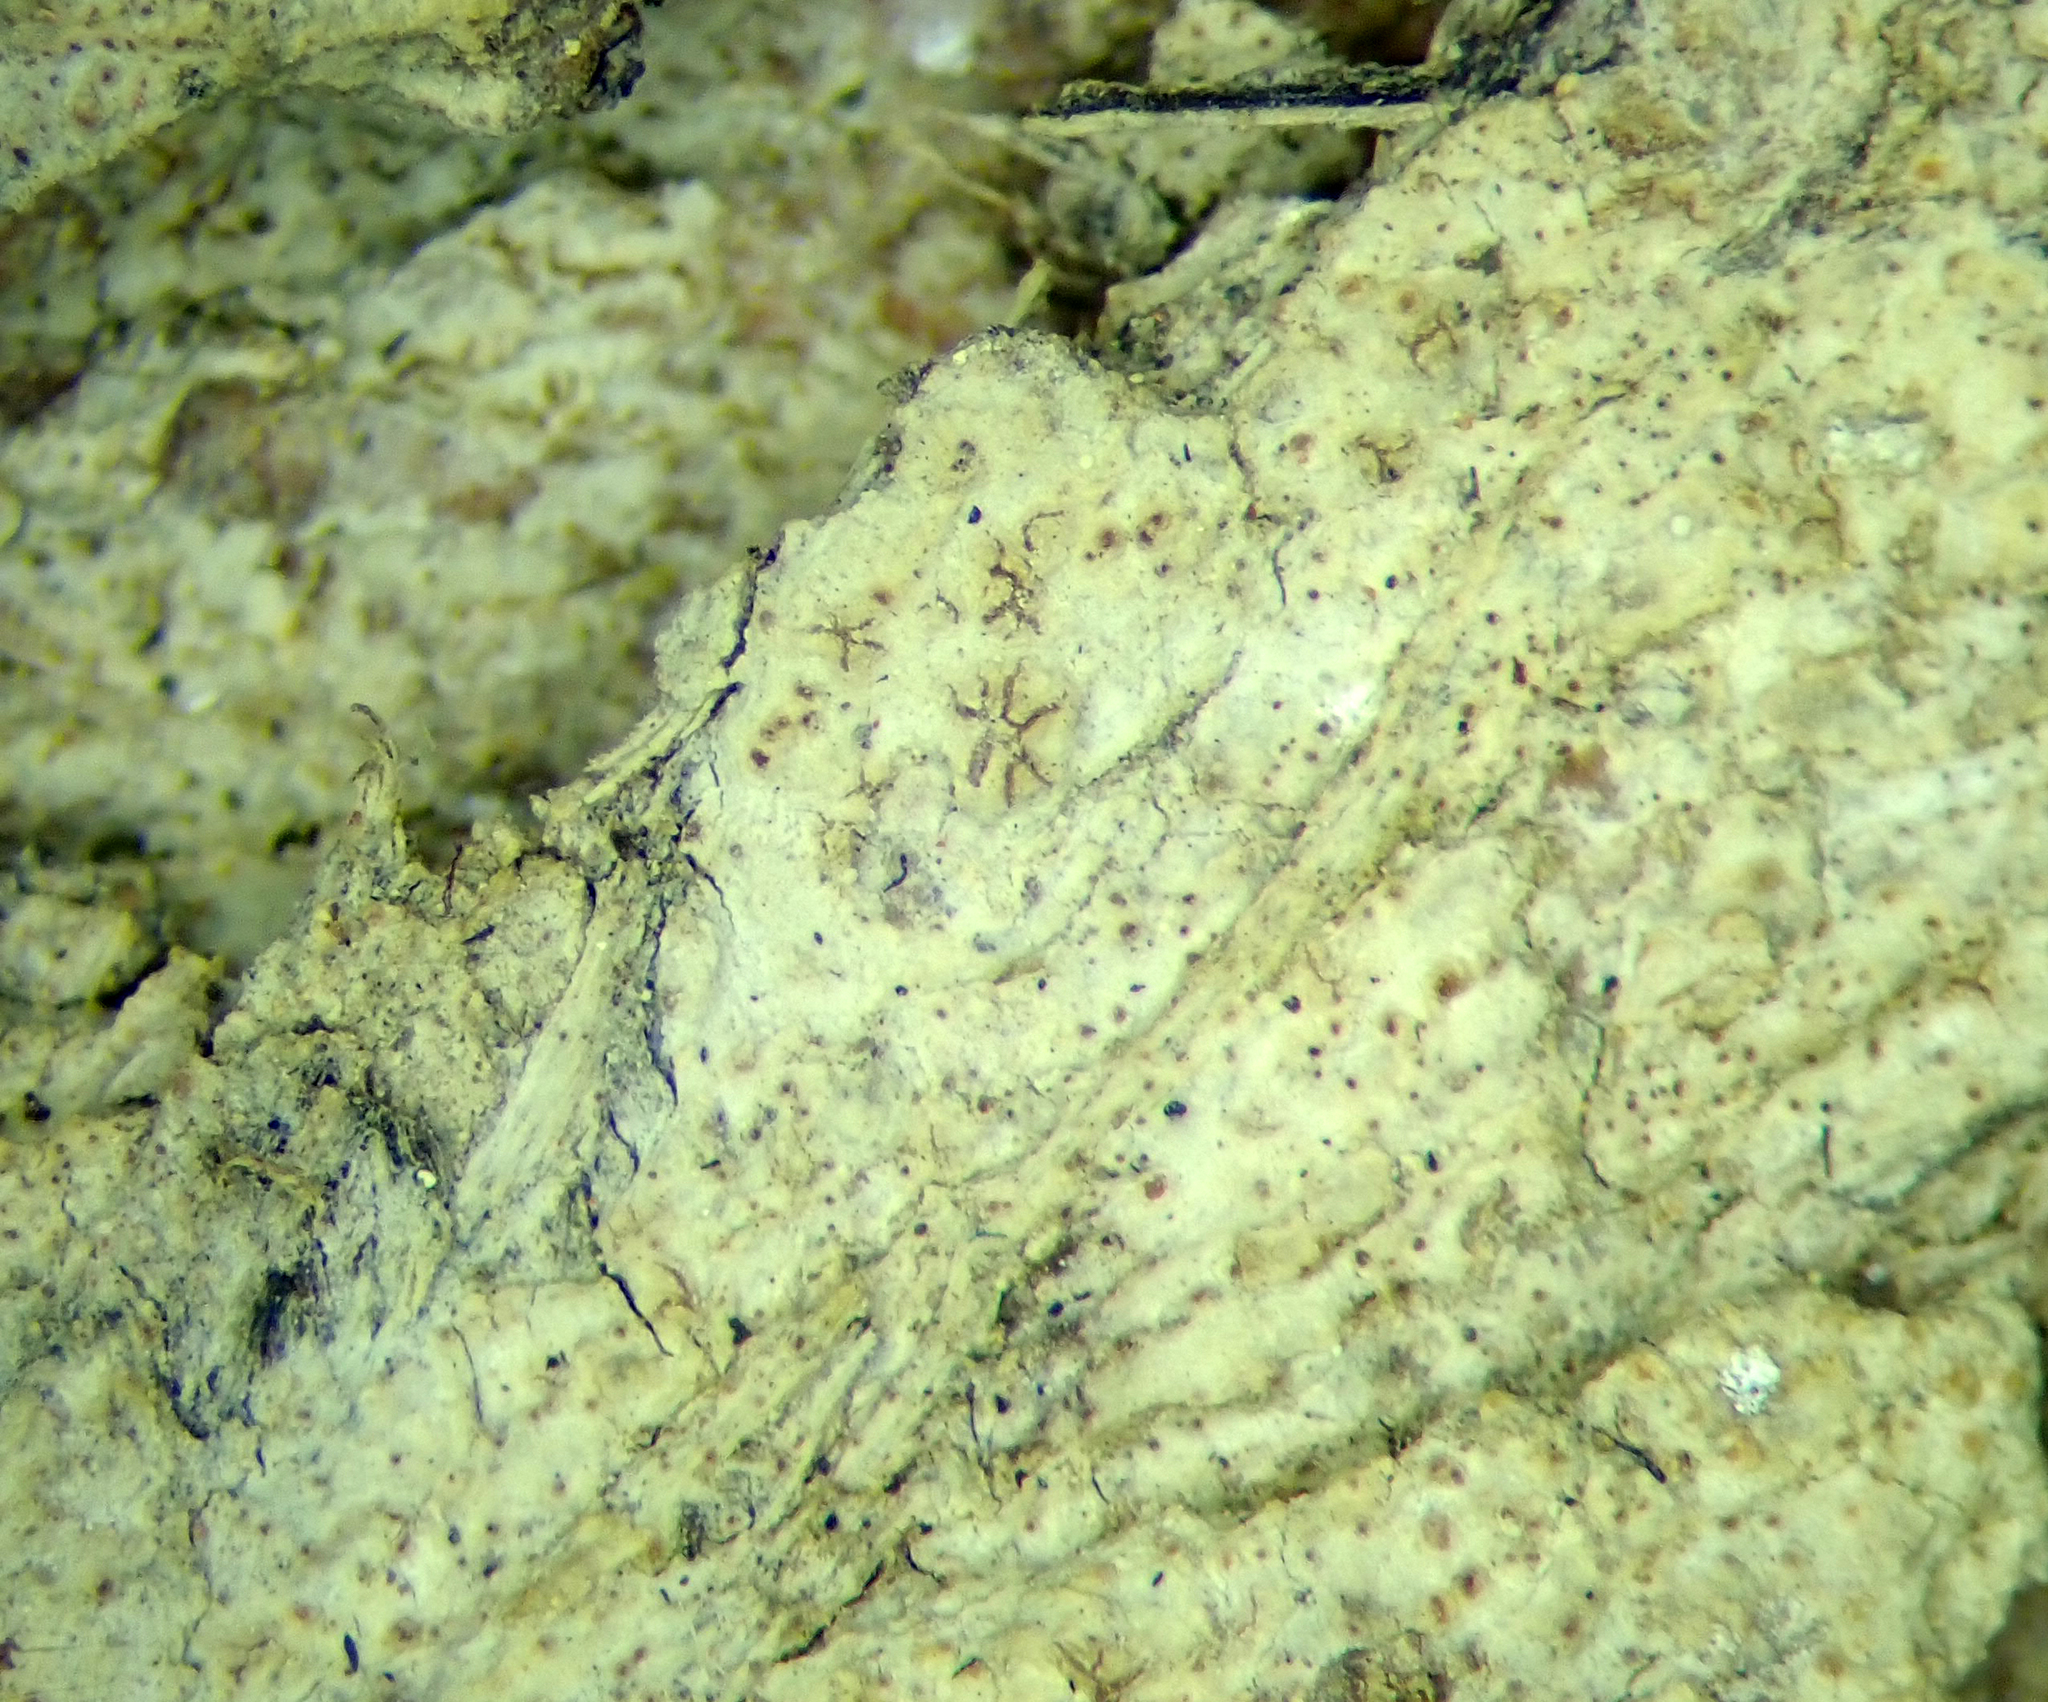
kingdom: Fungi
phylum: Ascomycota
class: Arthoniomycetes
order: Arthoniales
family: Roccellaceae
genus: Enterographa
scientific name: Enterographa pallidella
